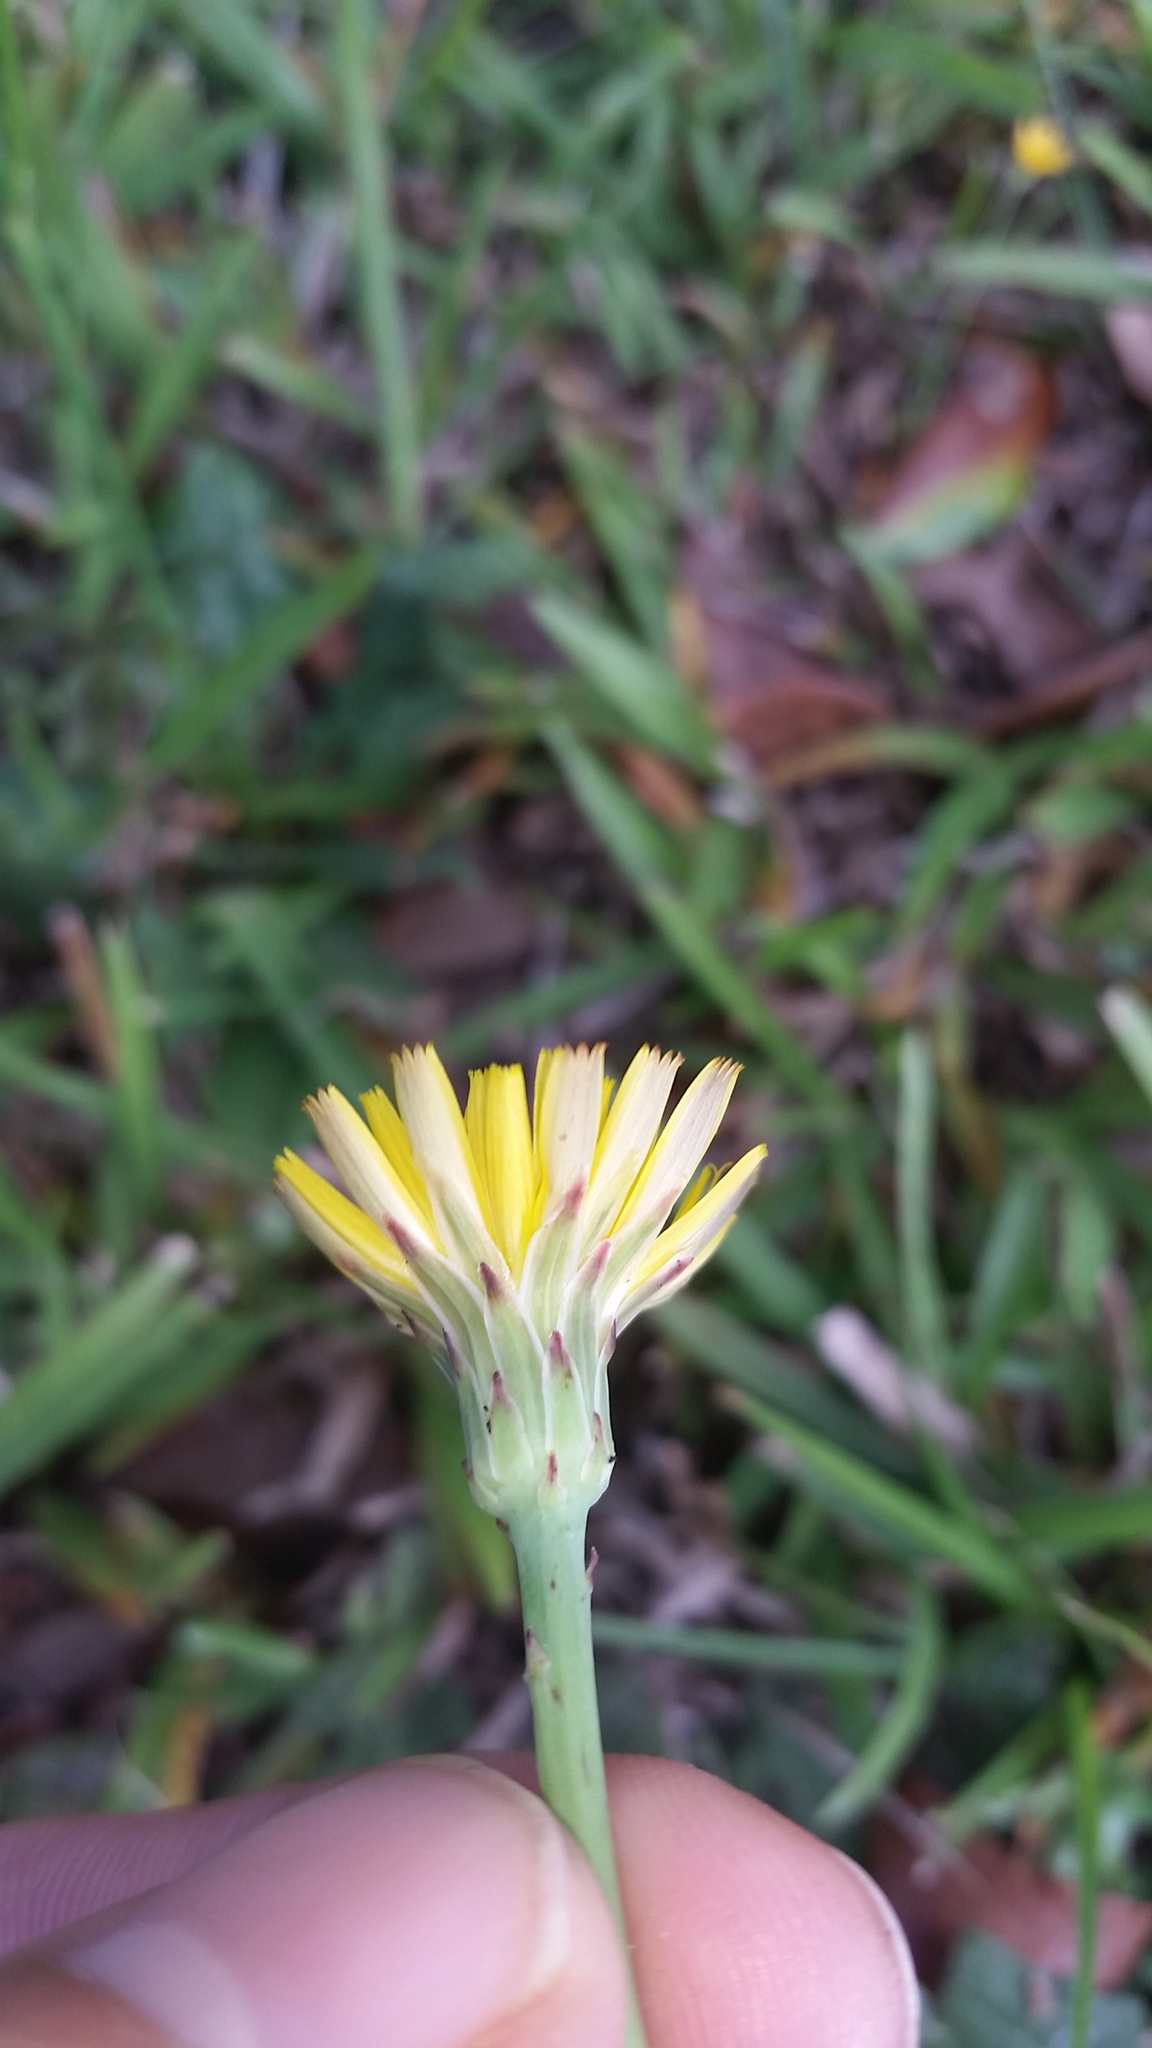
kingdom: Plantae
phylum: Tracheophyta
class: Magnoliopsida
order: Asterales
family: Asteraceae
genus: Hypochaeris
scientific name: Hypochaeris radicata
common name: Flatweed
